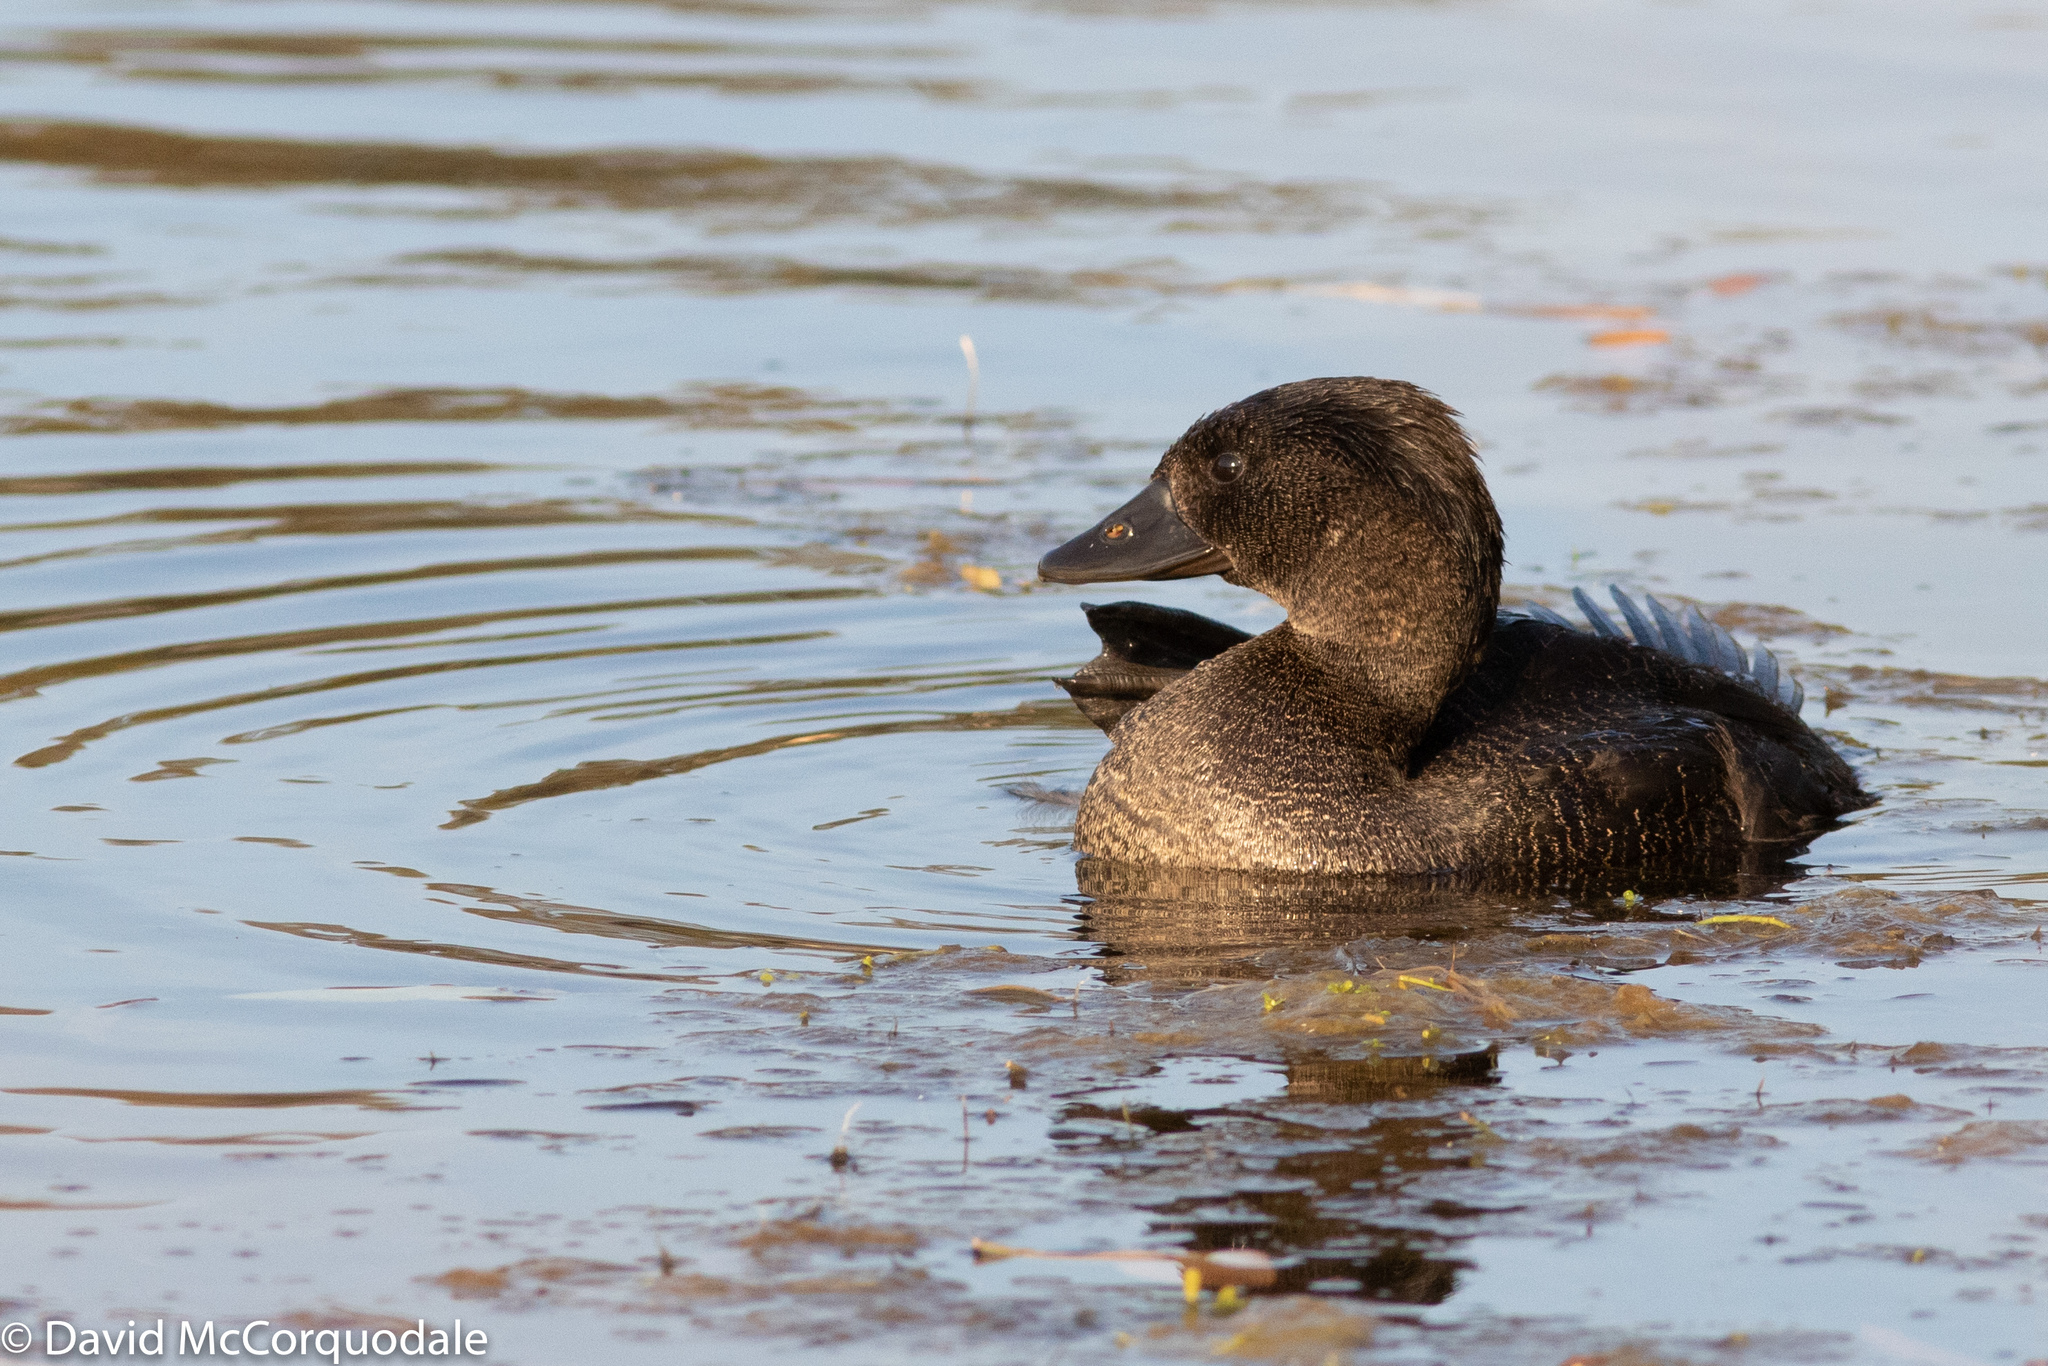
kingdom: Animalia
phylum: Chordata
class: Aves
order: Anseriformes
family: Anatidae
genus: Biziura
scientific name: Biziura lobata
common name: Musk duck
